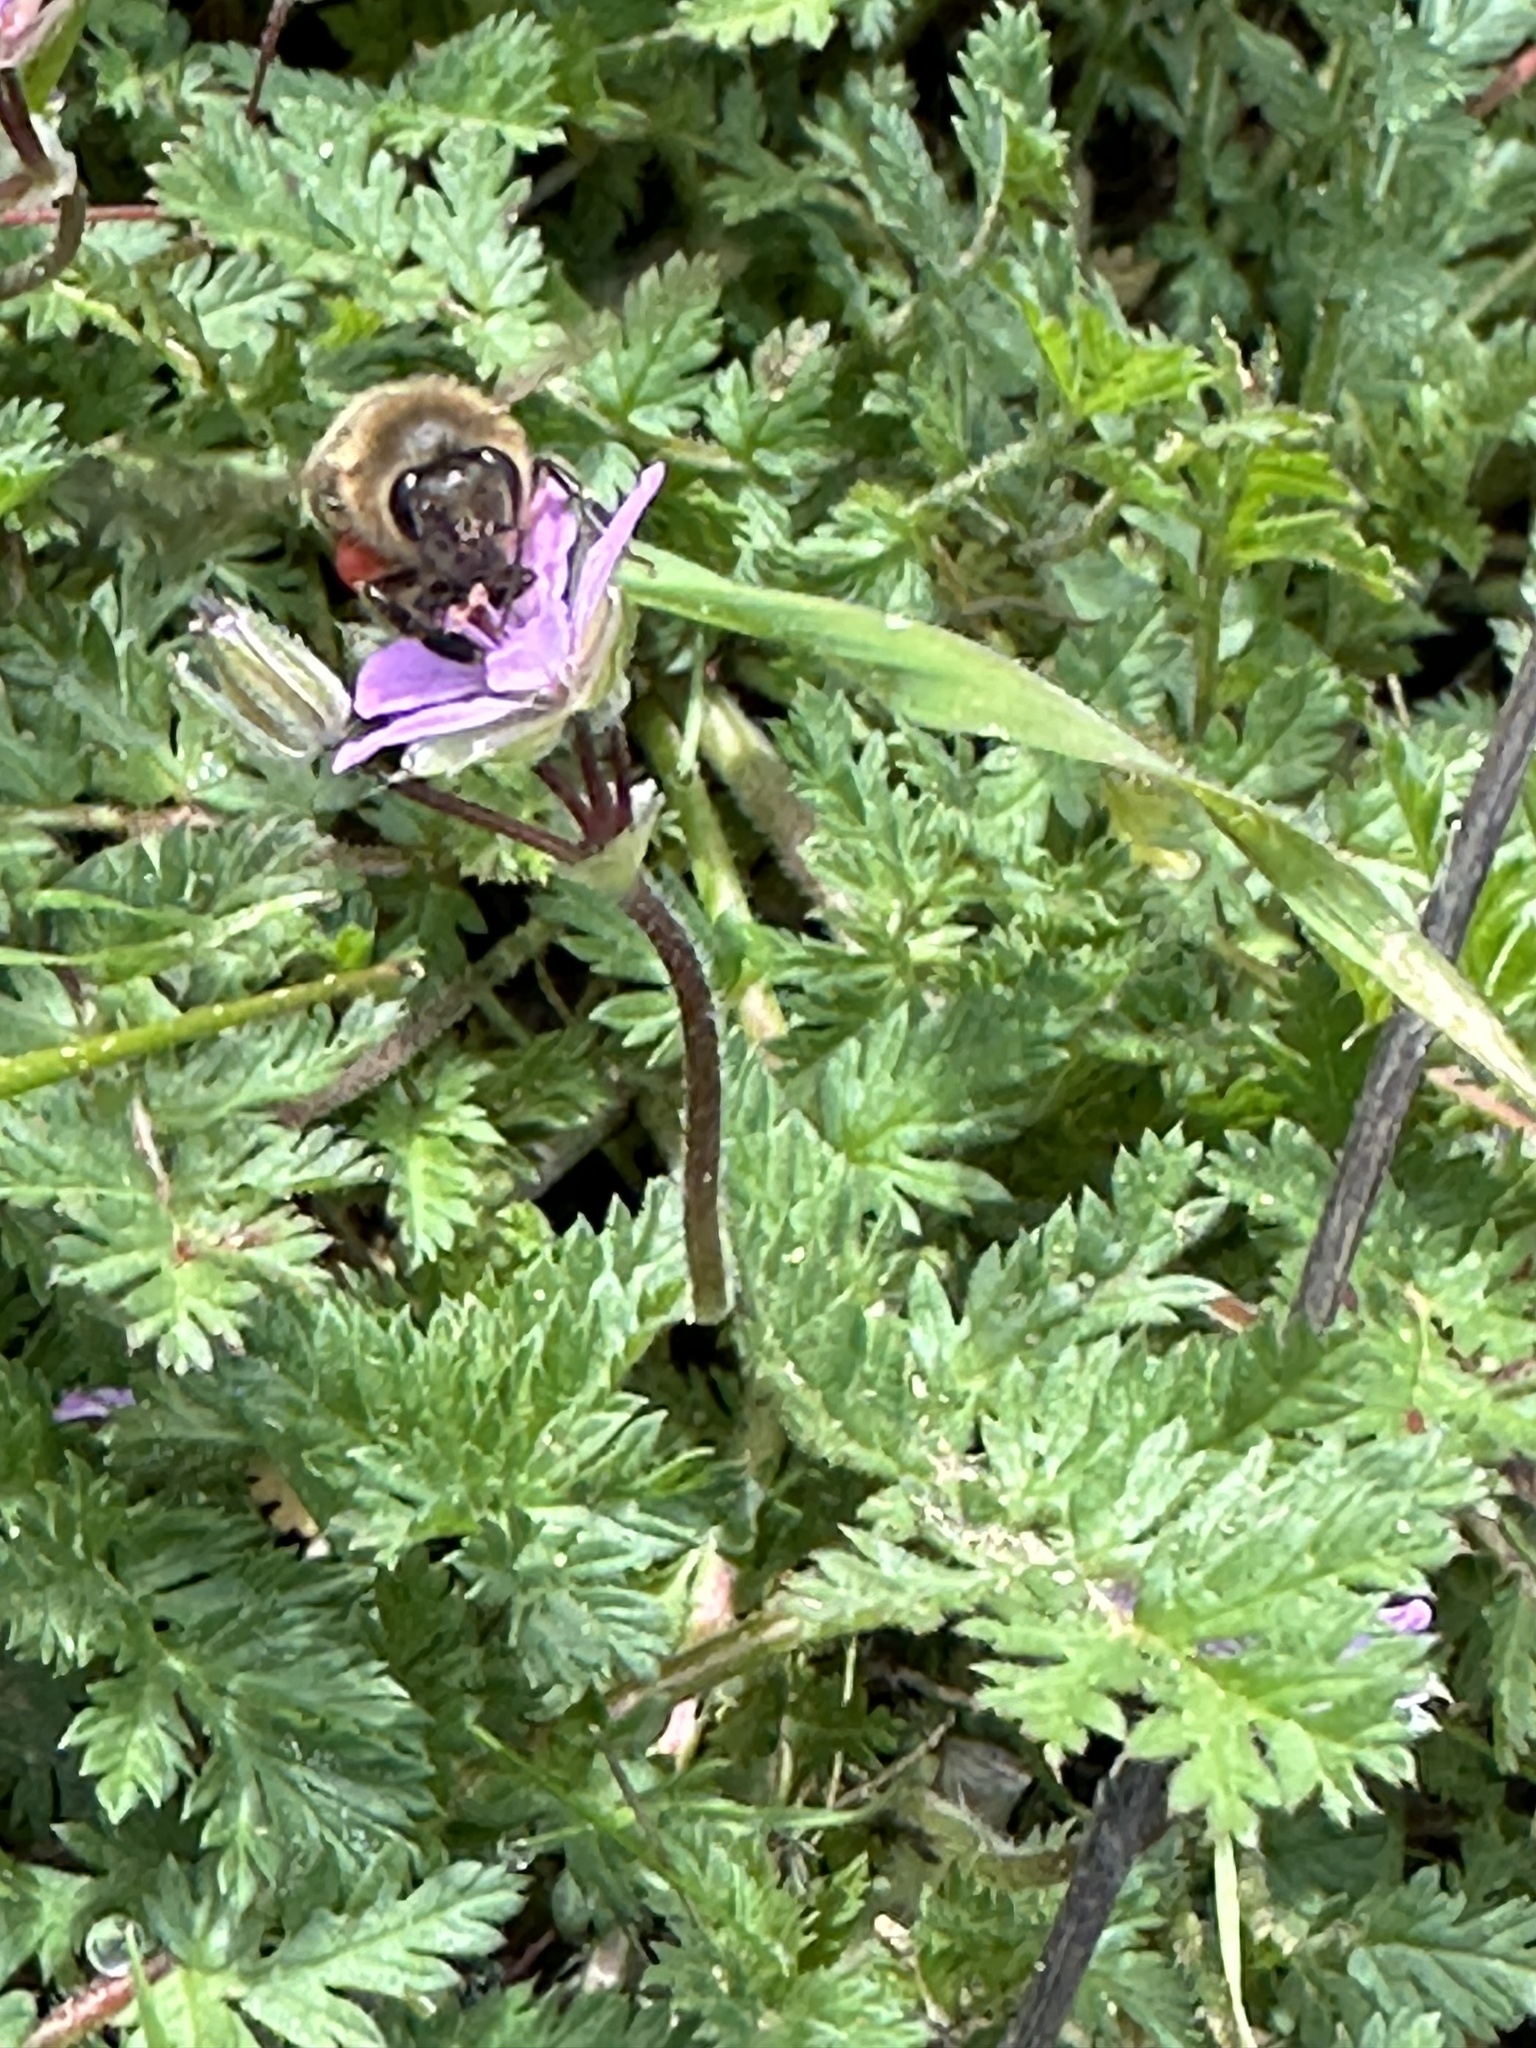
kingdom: Animalia
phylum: Arthropoda
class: Insecta
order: Hymenoptera
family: Apidae
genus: Apis
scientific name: Apis mellifera
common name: Honey bee
